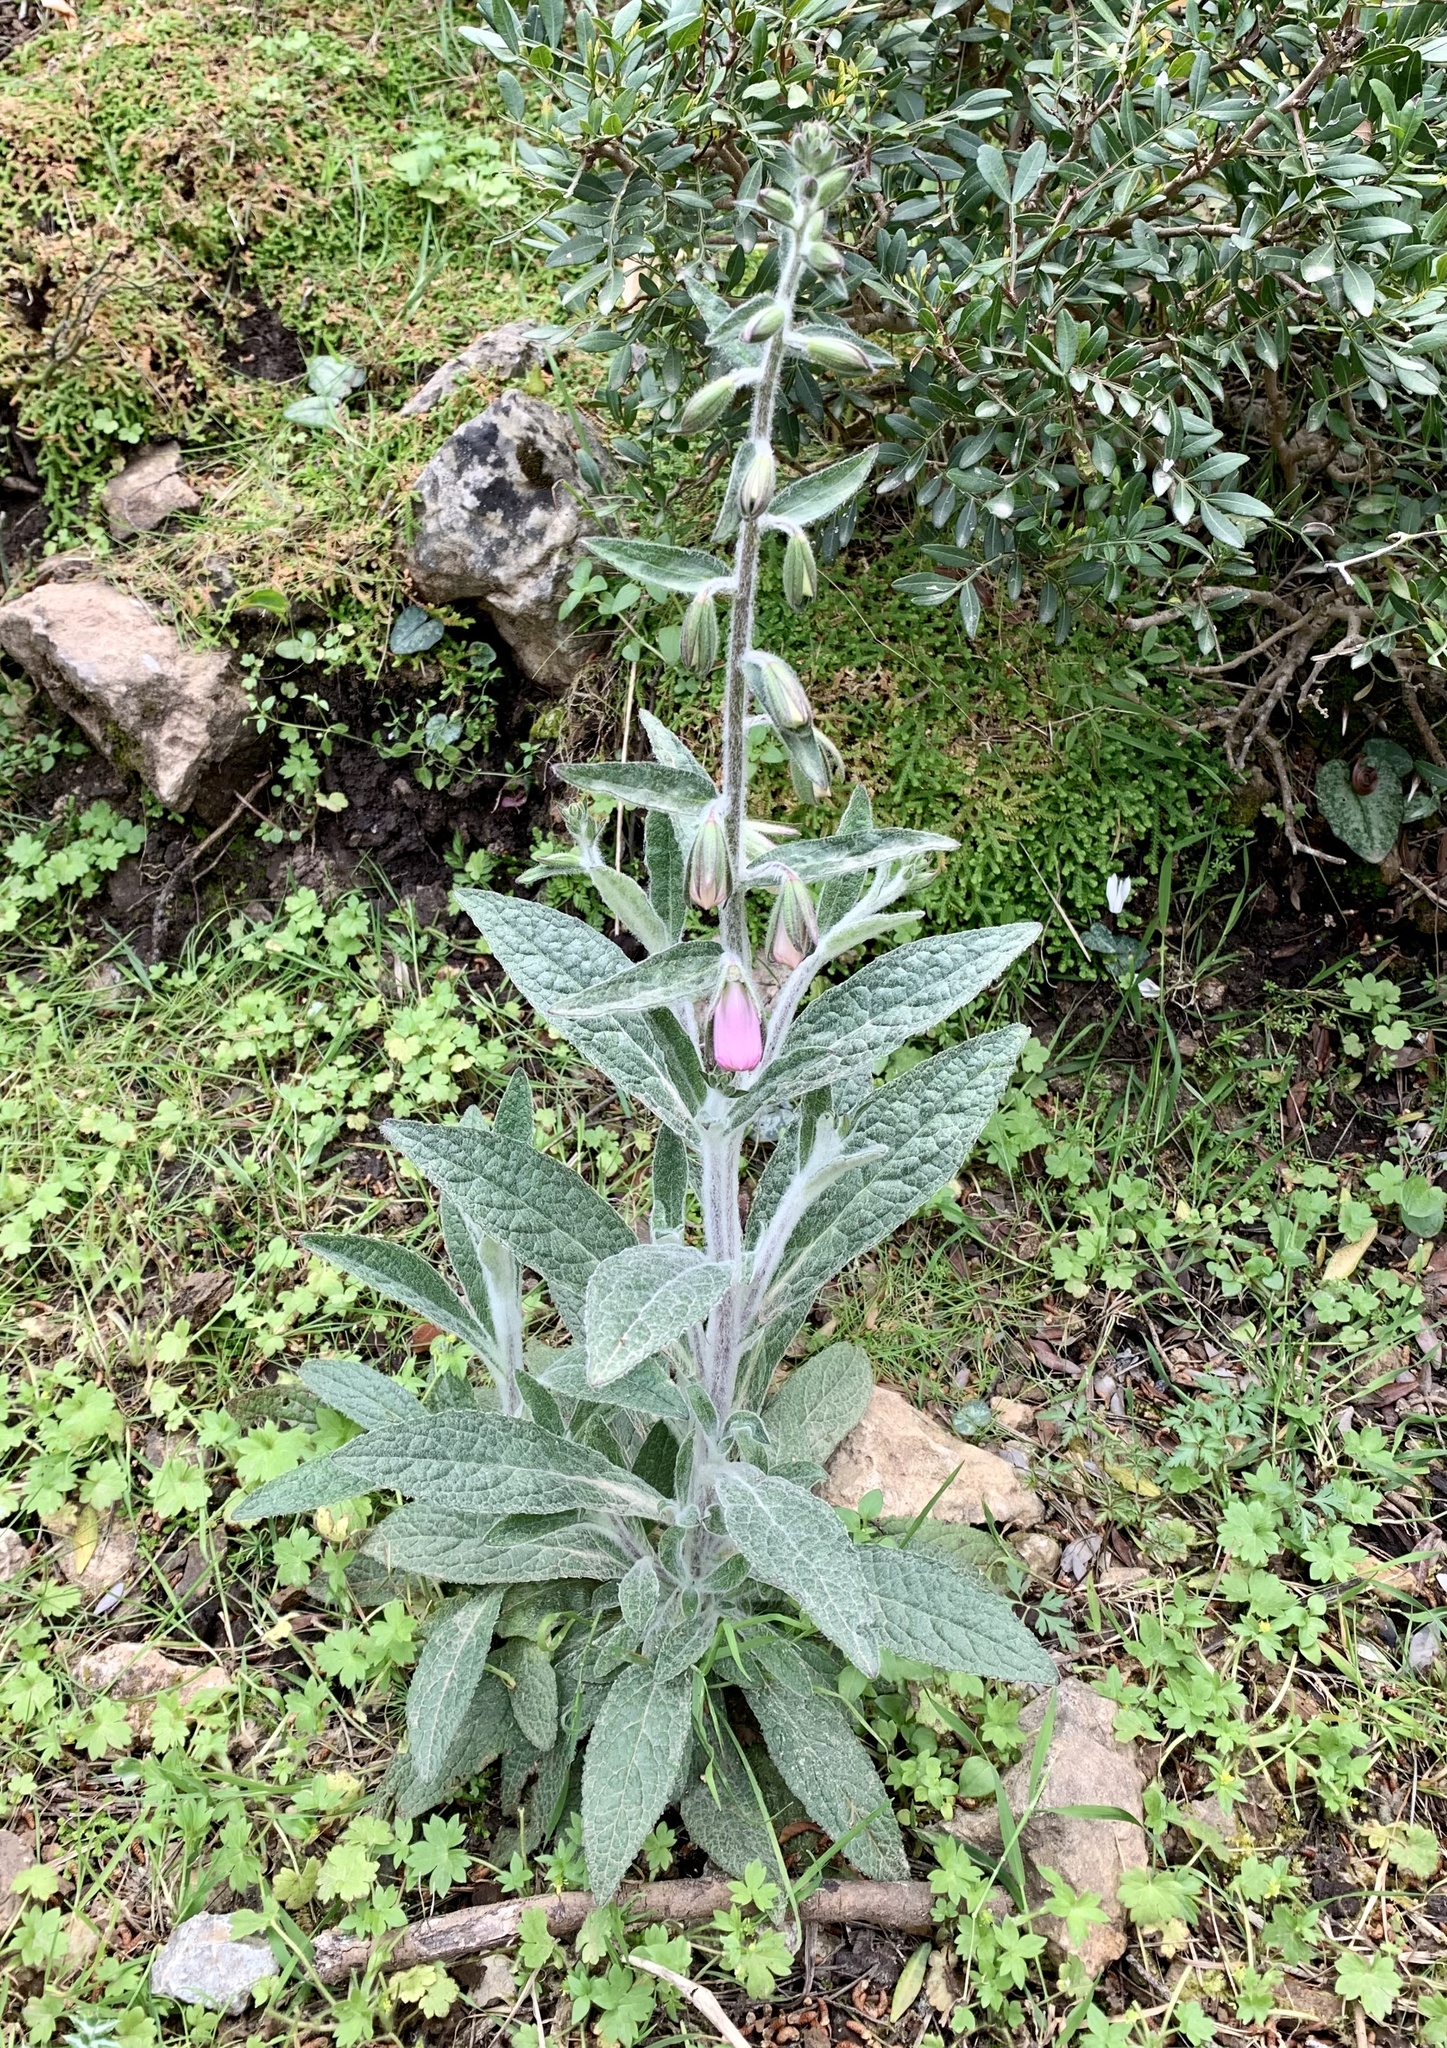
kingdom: Plantae
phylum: Tracheophyta
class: Magnoliopsida
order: Lamiales
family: Plantaginaceae
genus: Digitalis
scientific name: Digitalis minor
